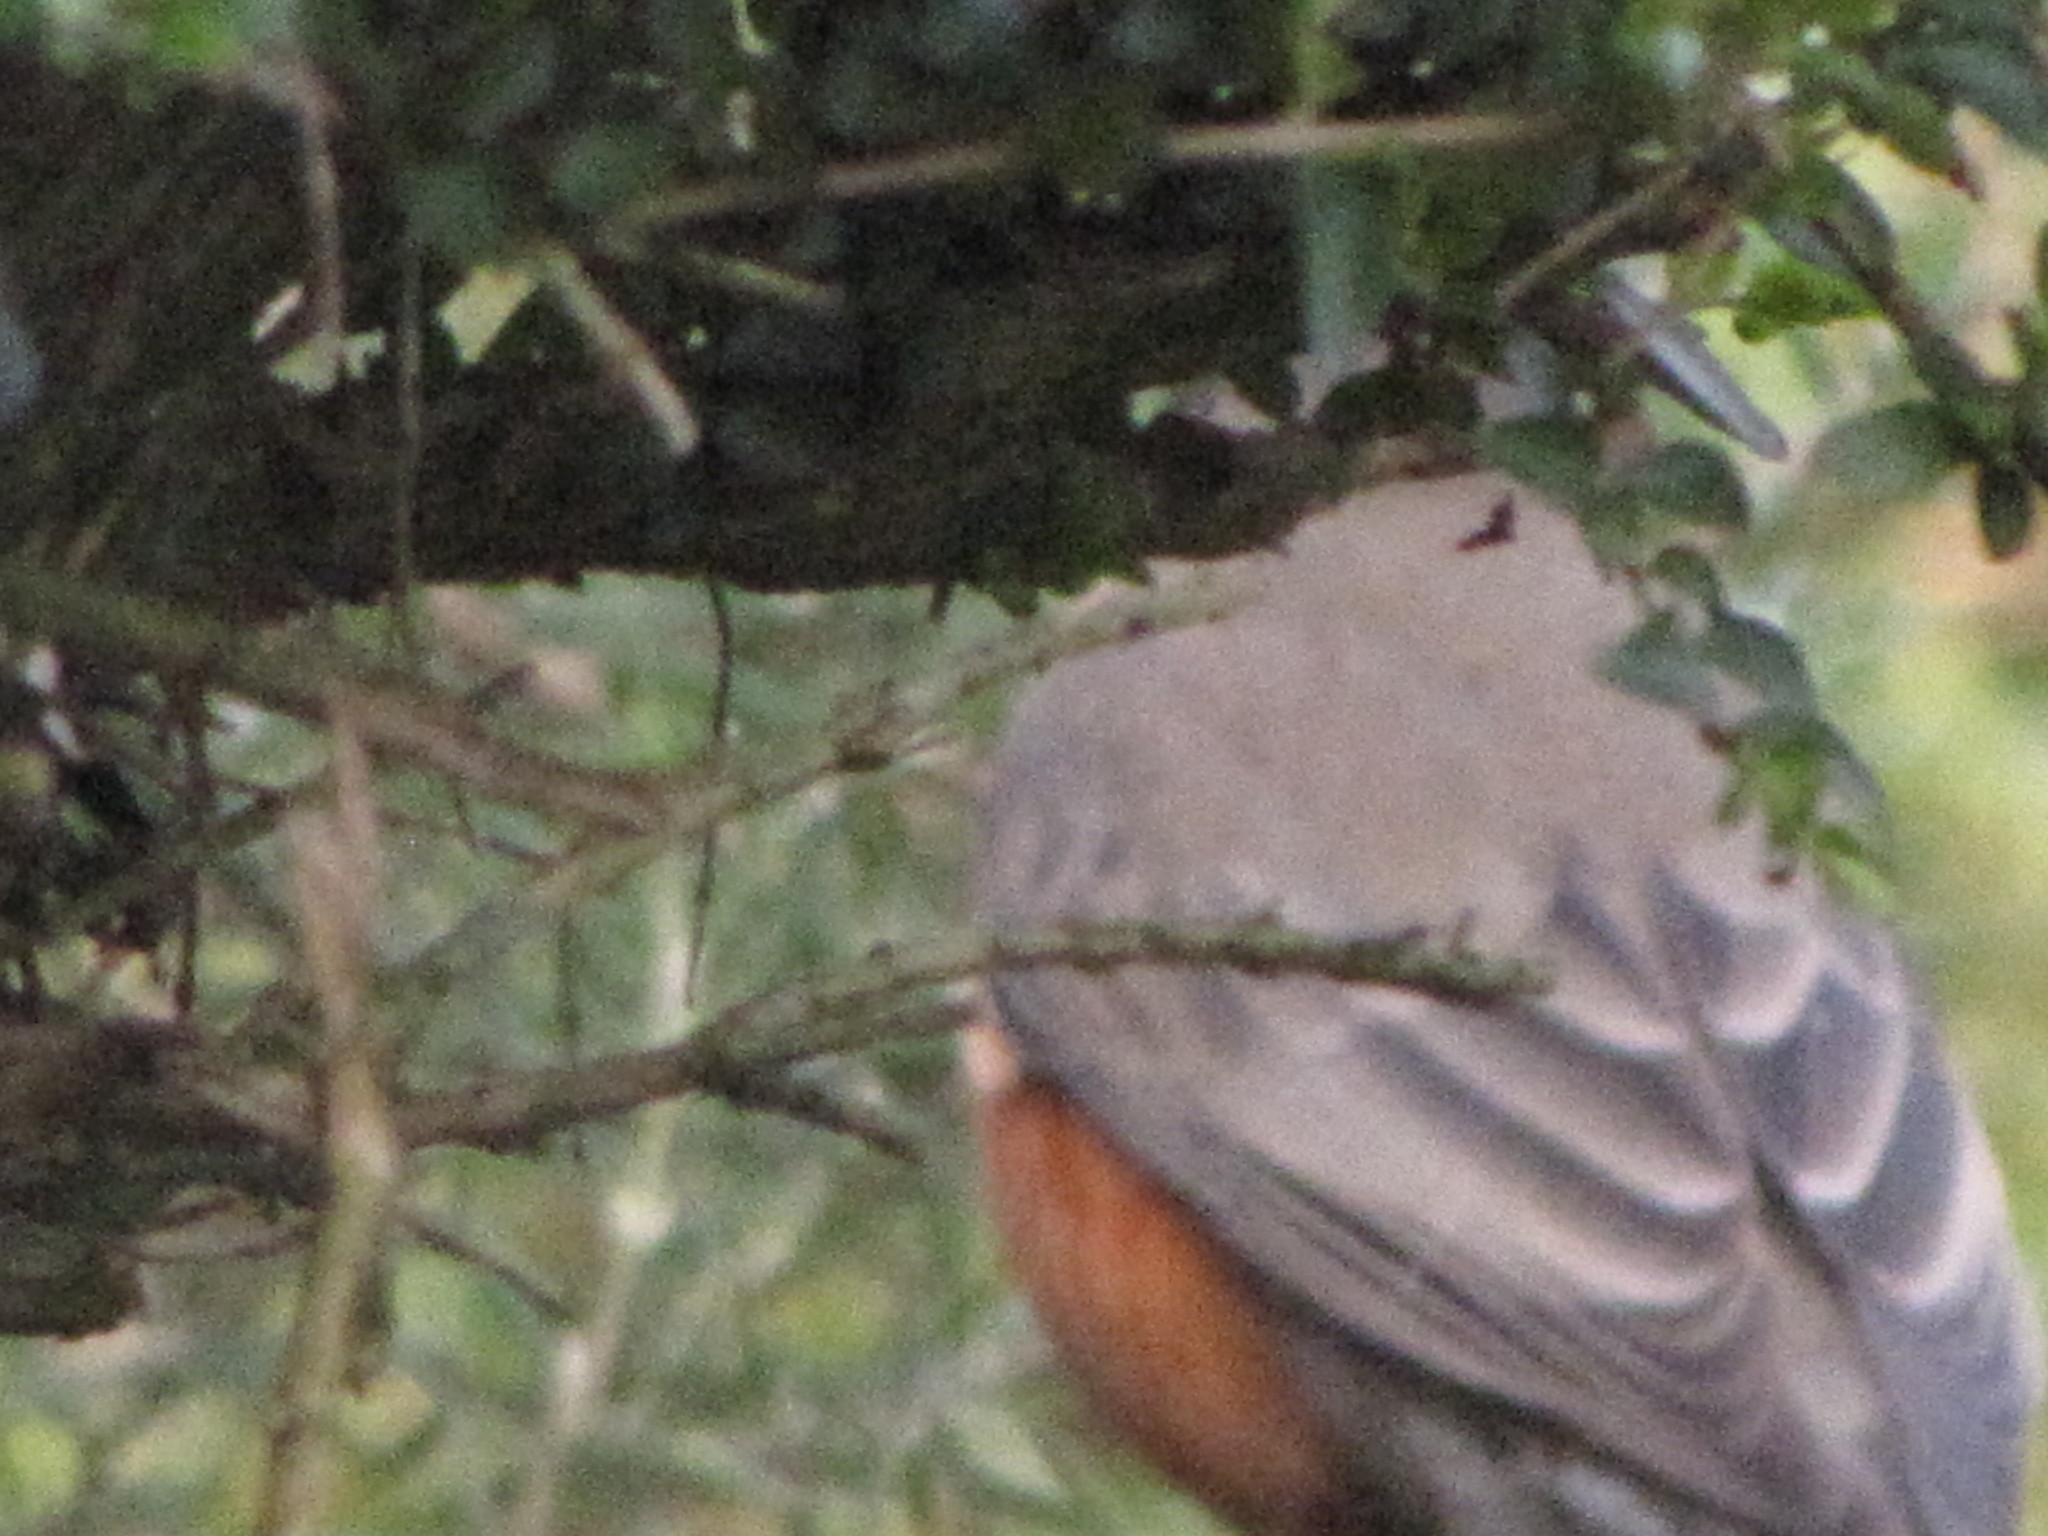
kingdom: Animalia
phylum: Chordata
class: Aves
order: Passeriformes
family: Turdidae
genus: Turdus
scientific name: Turdus migratorius
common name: American robin
